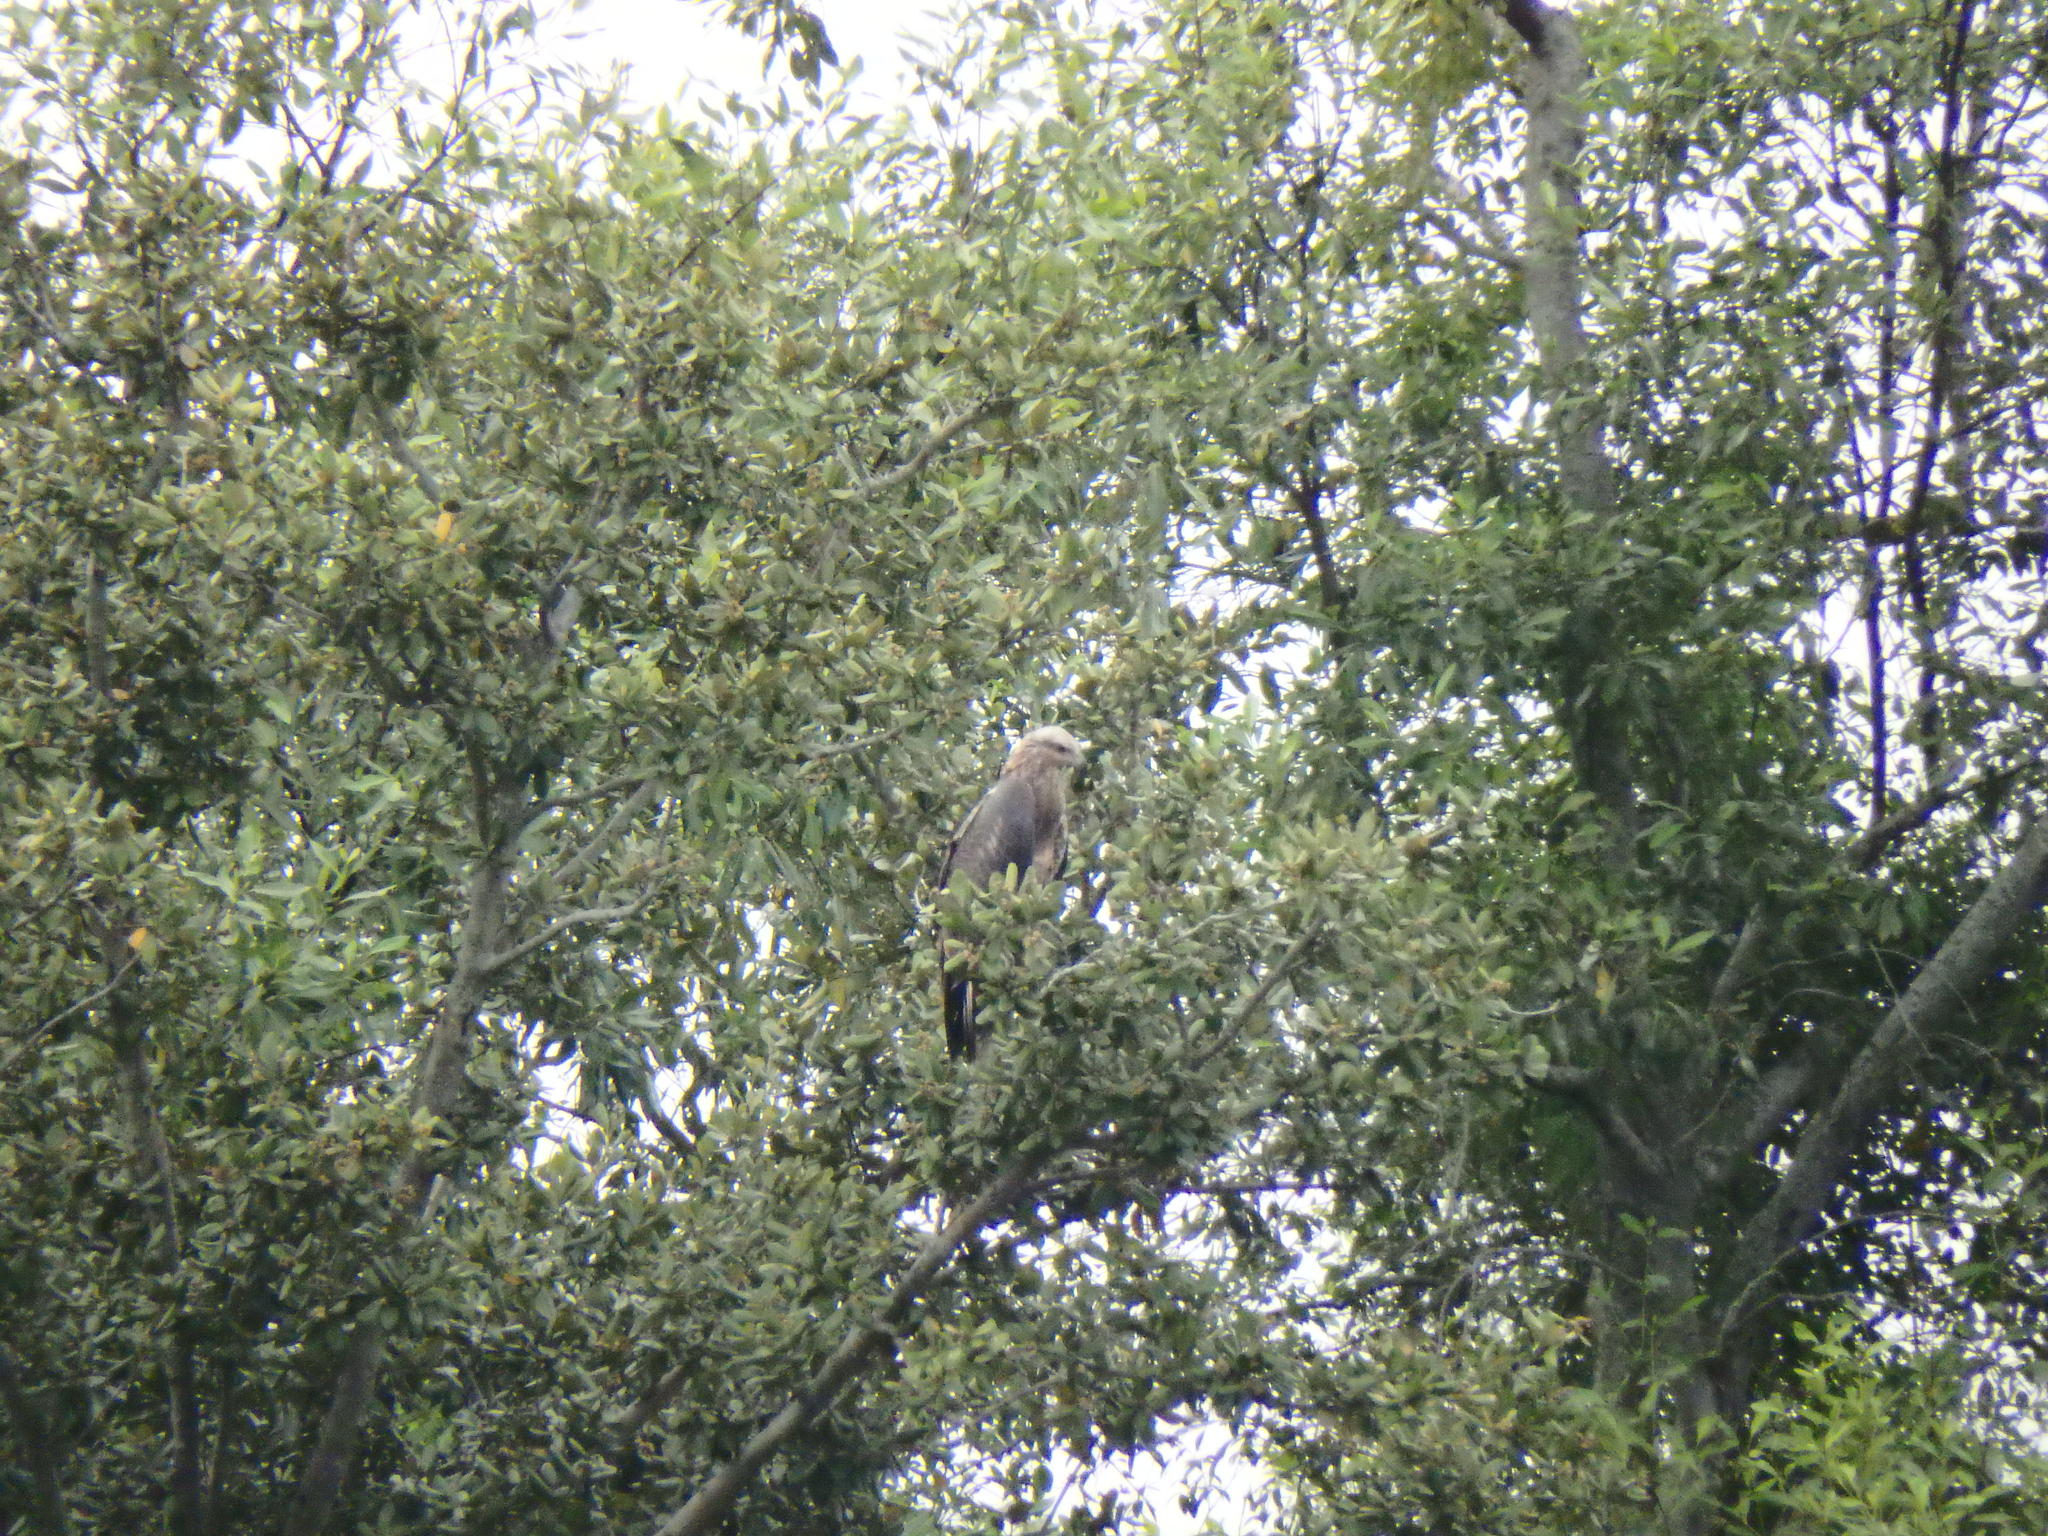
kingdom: Animalia
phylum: Chordata
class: Aves
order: Accipitriformes
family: Accipitridae
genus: Haliaeetus
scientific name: Haliaeetus leucogaster
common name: White-bellied sea eagle
